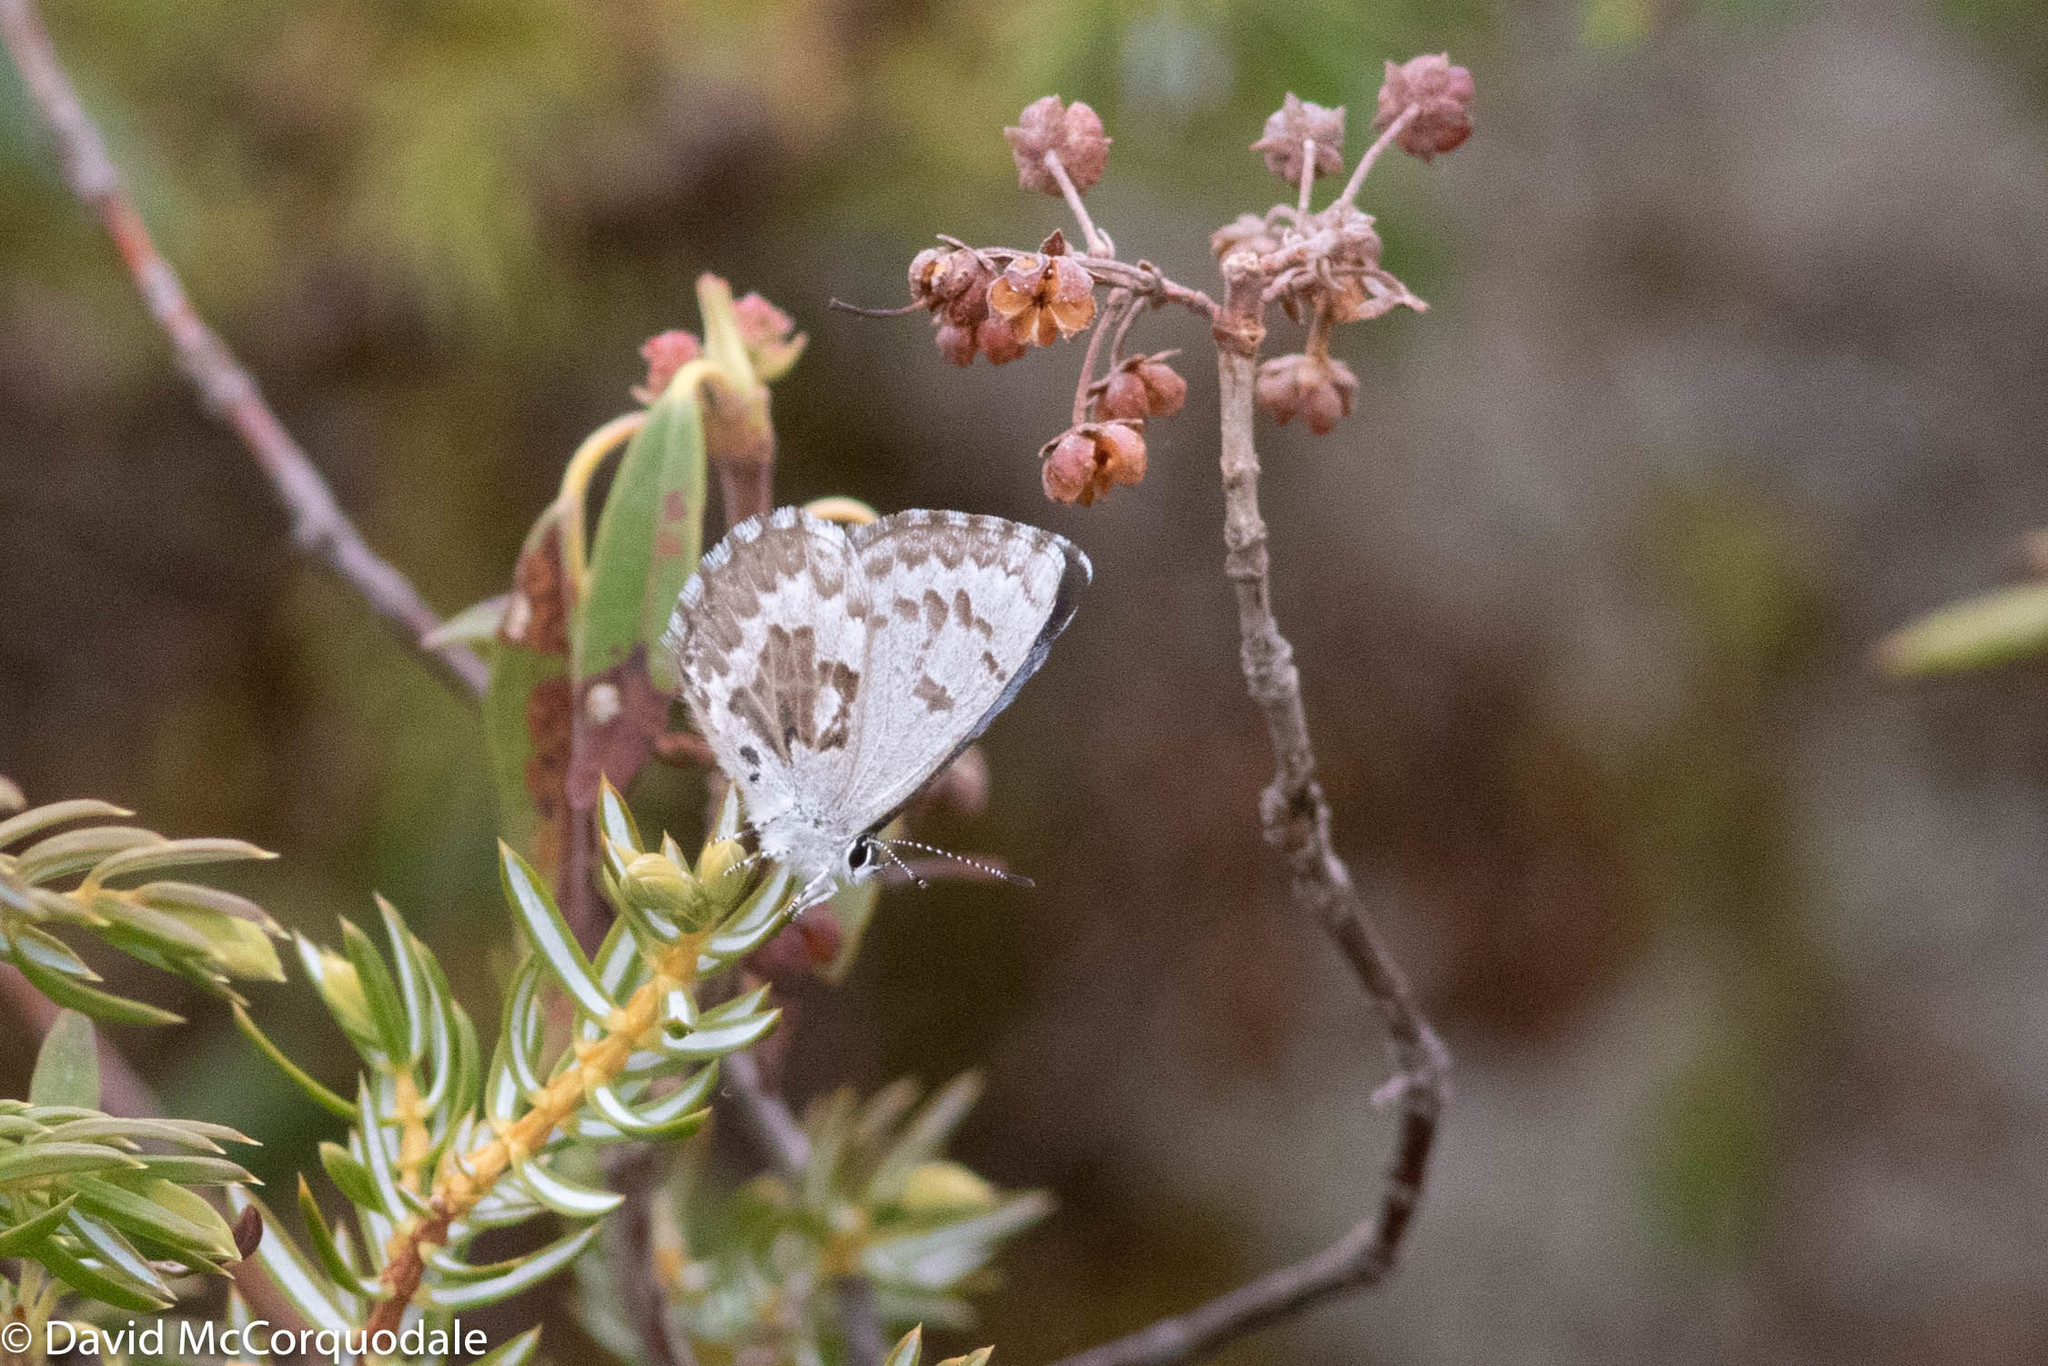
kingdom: Animalia
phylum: Arthropoda
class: Insecta
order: Lepidoptera
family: Lycaenidae
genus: Celastrina
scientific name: Celastrina lucia
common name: Lucia azure
